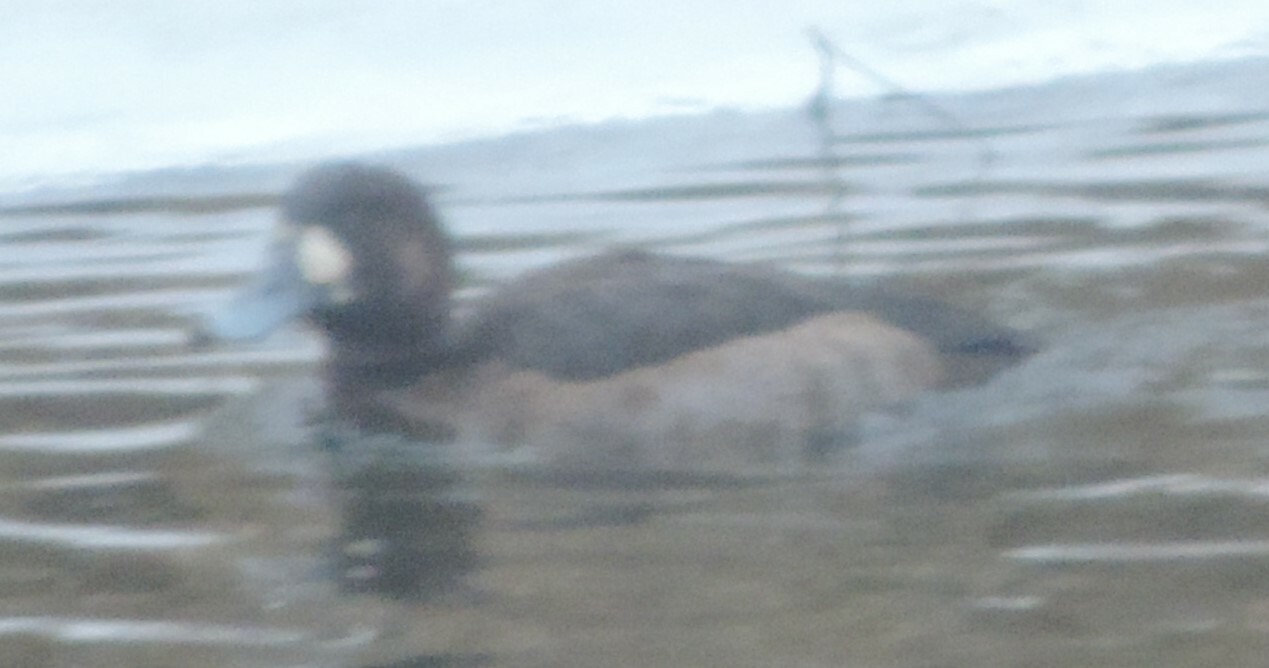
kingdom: Animalia
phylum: Chordata
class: Aves
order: Anseriformes
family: Anatidae
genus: Aythya
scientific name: Aythya marila
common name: Greater scaup
